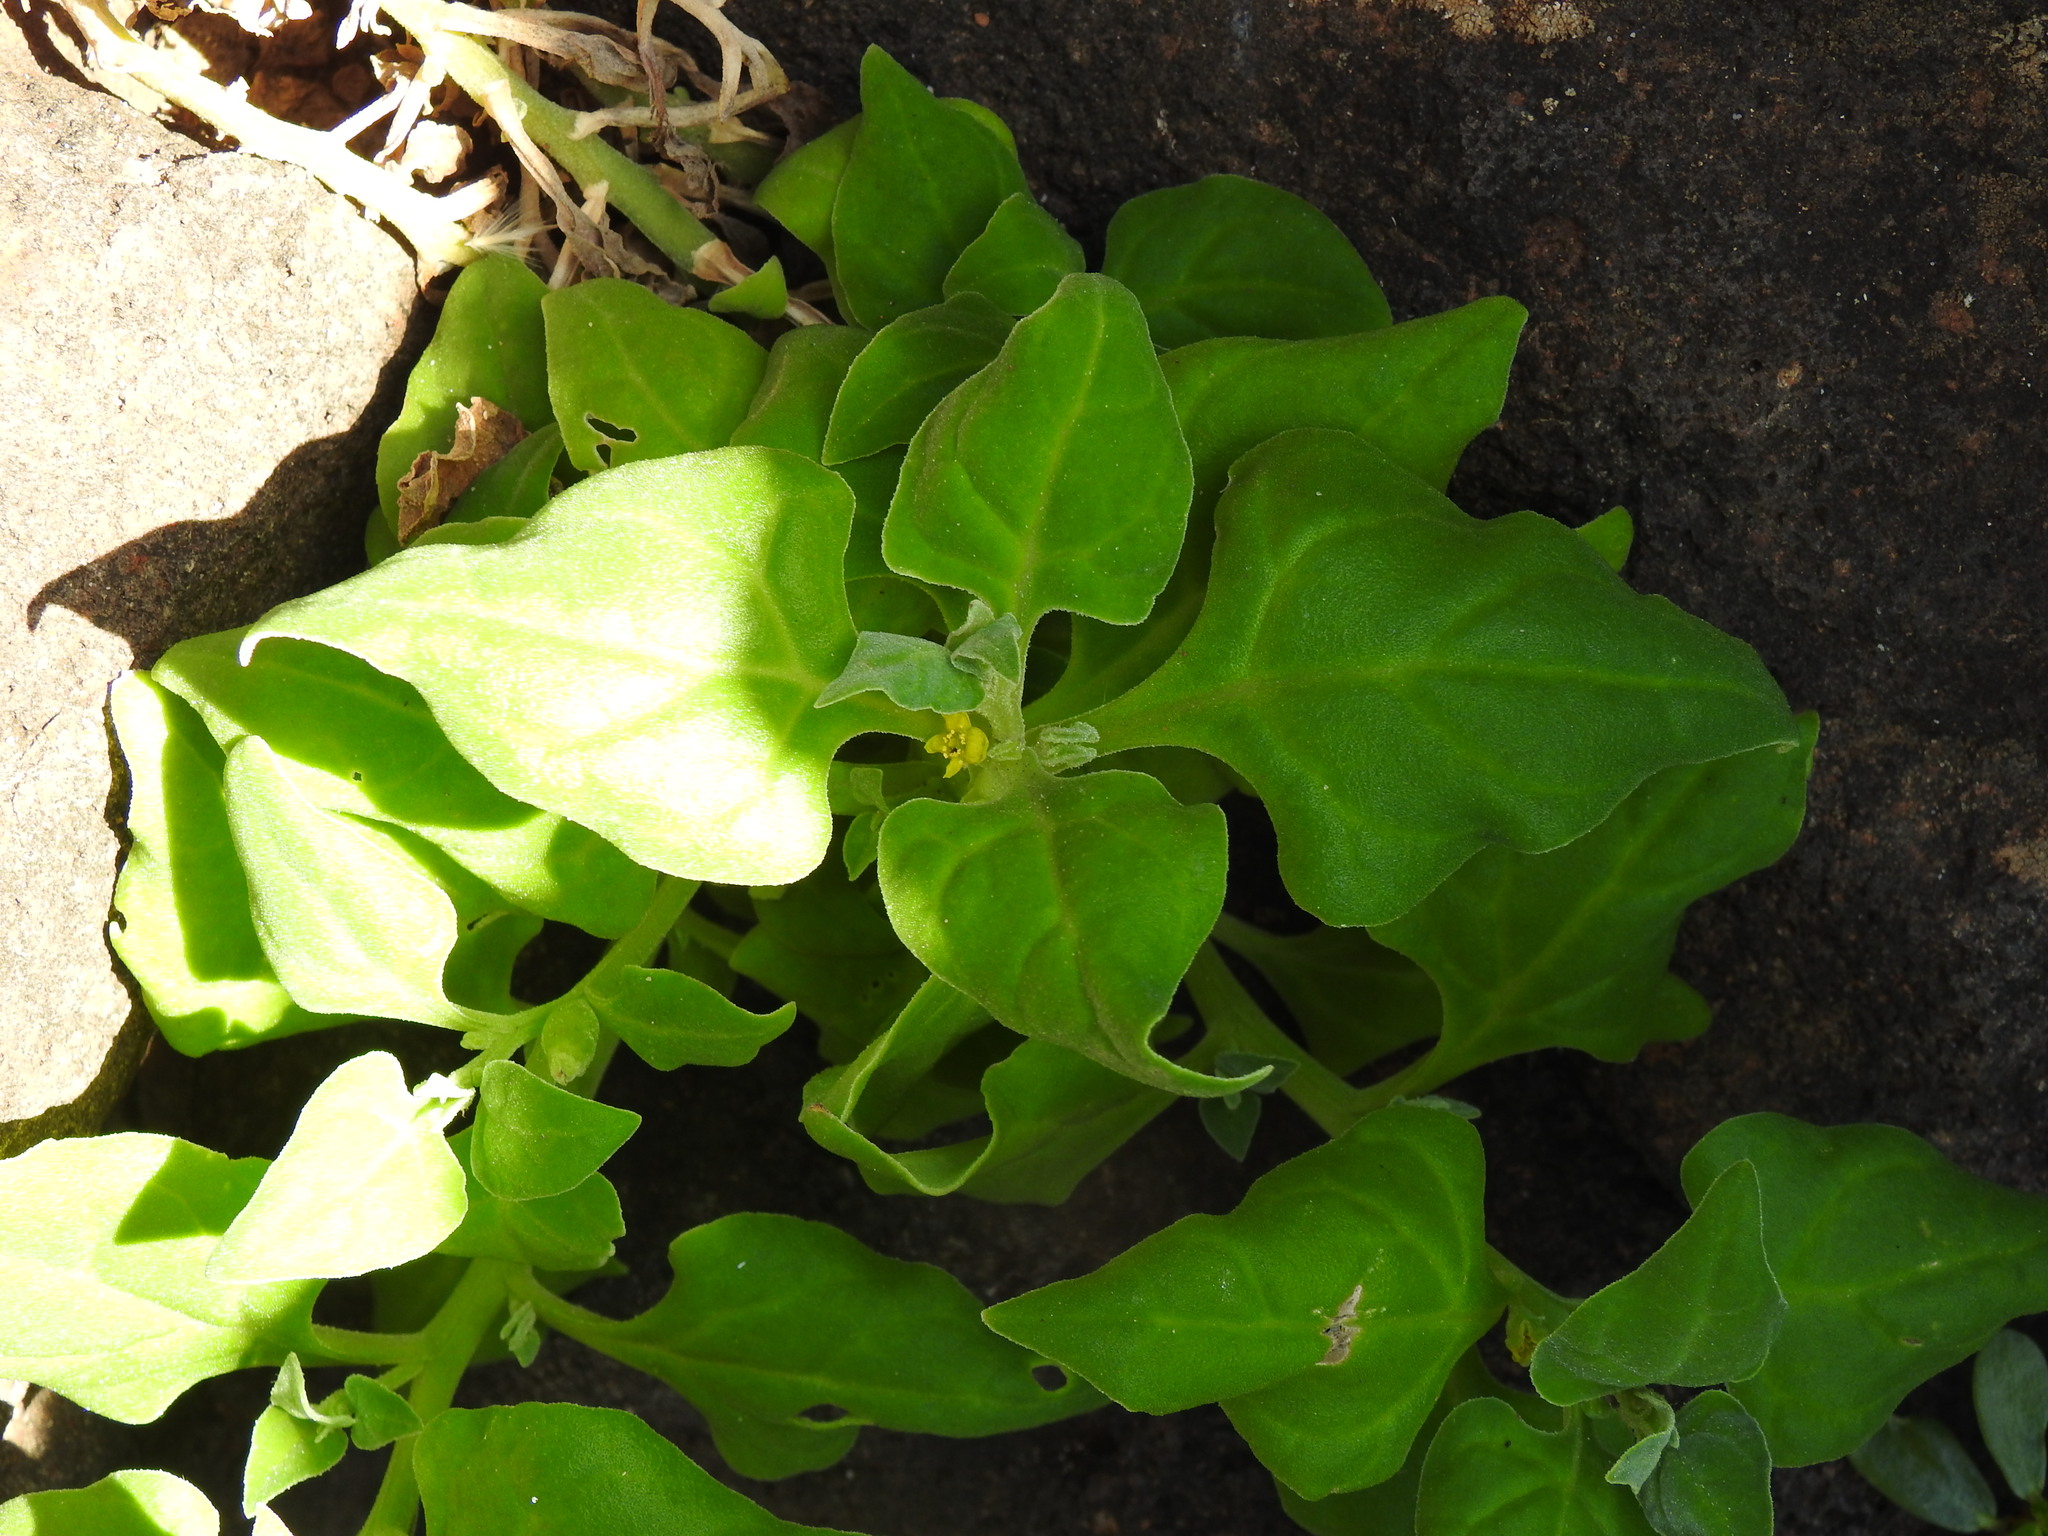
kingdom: Plantae
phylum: Tracheophyta
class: Magnoliopsida
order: Caryophyllales
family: Aizoaceae
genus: Tetragonia
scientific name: Tetragonia tetragonoides
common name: New zealand-spinach
